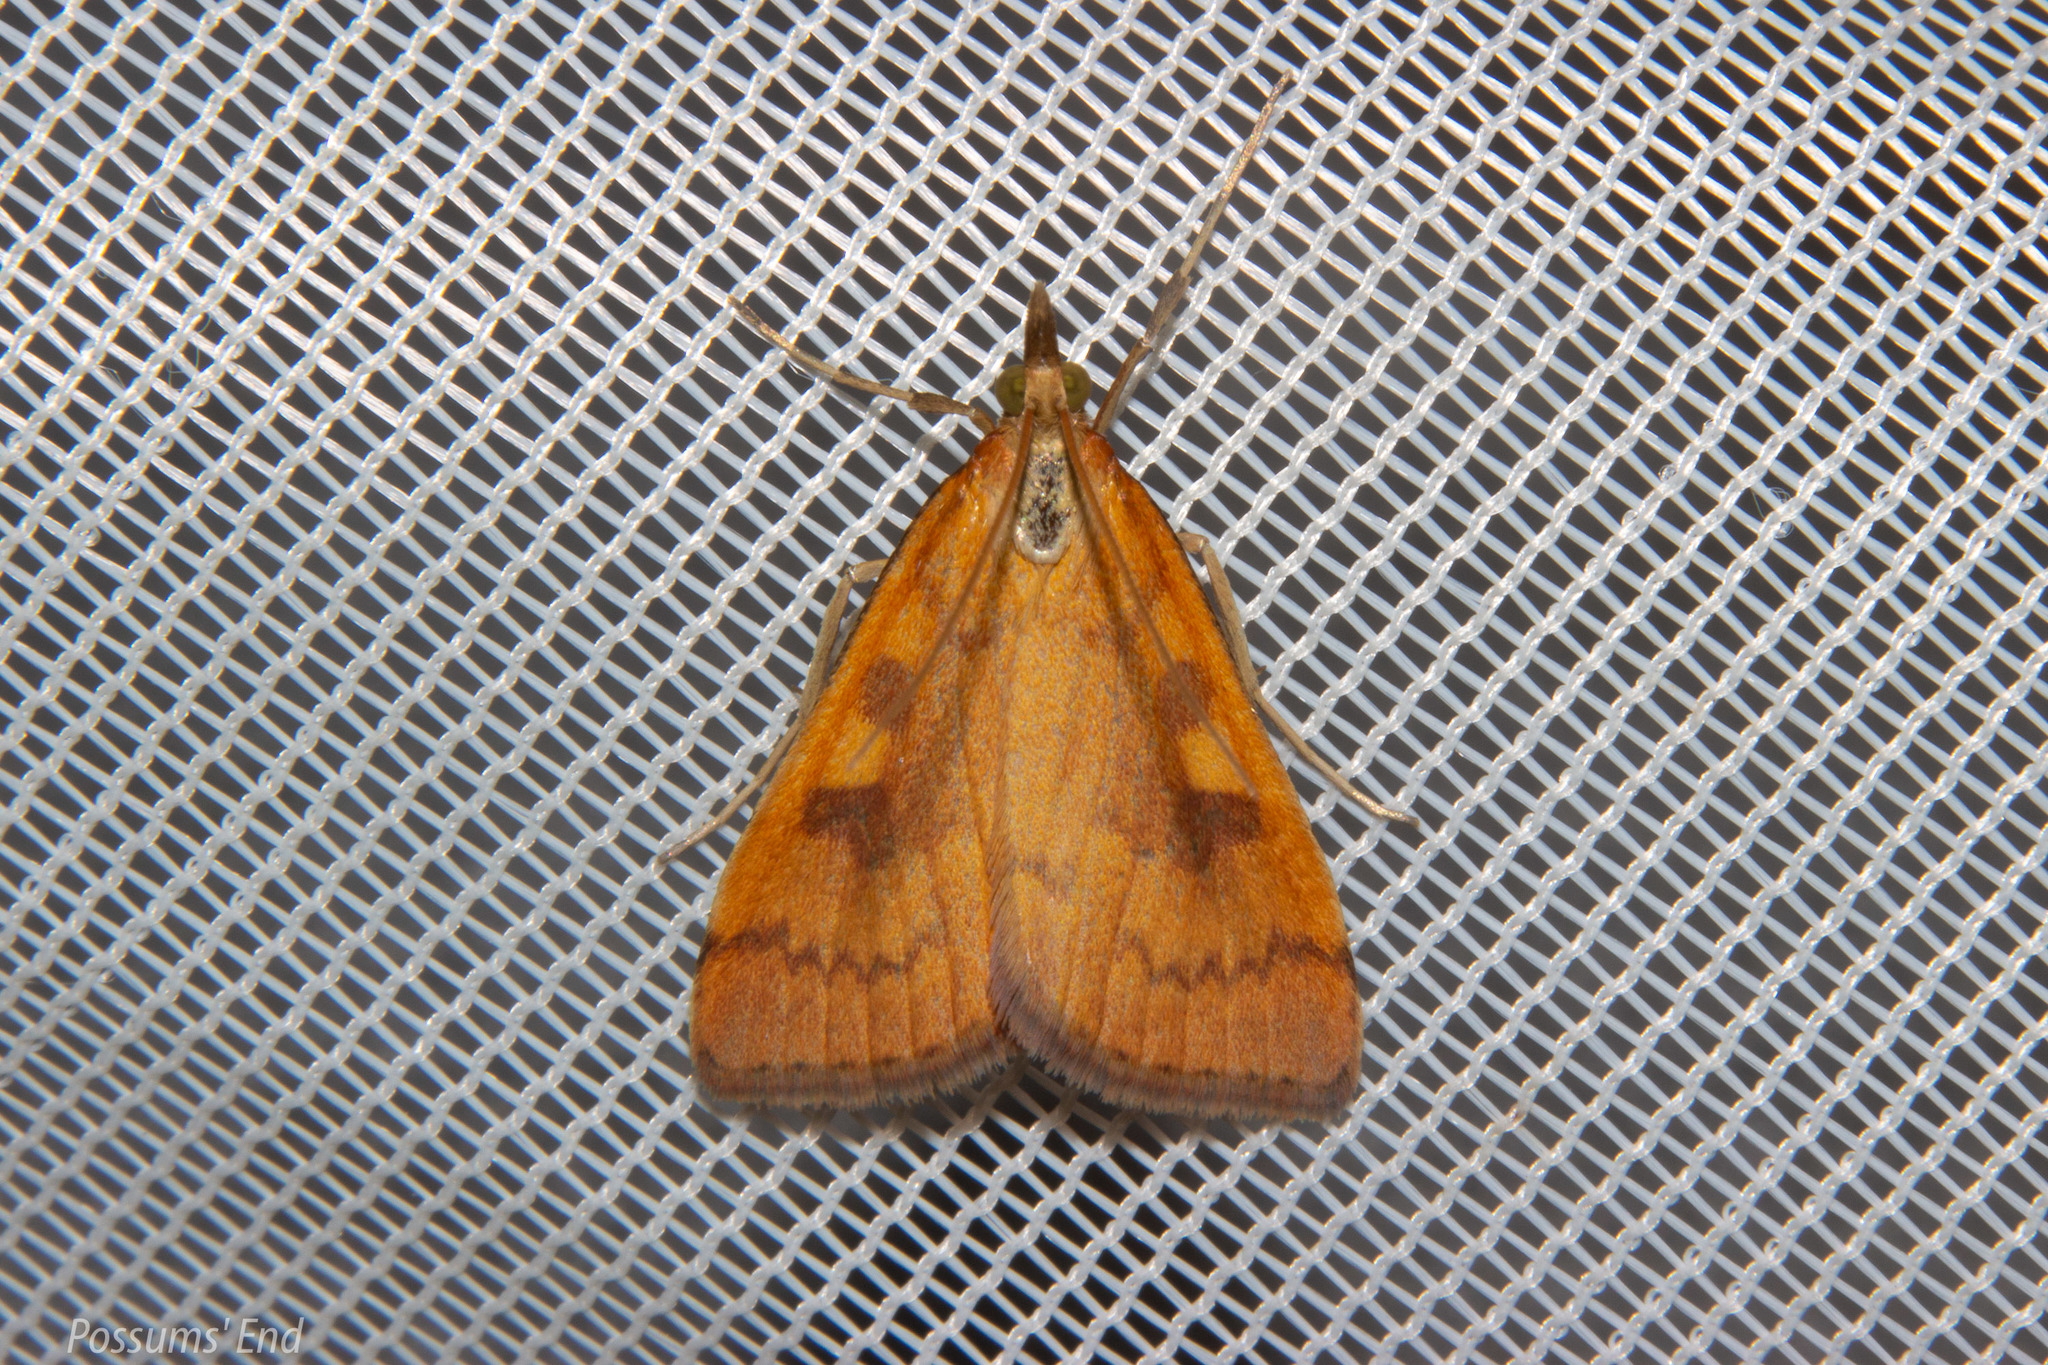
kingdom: Animalia
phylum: Arthropoda
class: Insecta
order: Lepidoptera
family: Crambidae
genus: Udea
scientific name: Udea Mnesictena flavidalis
